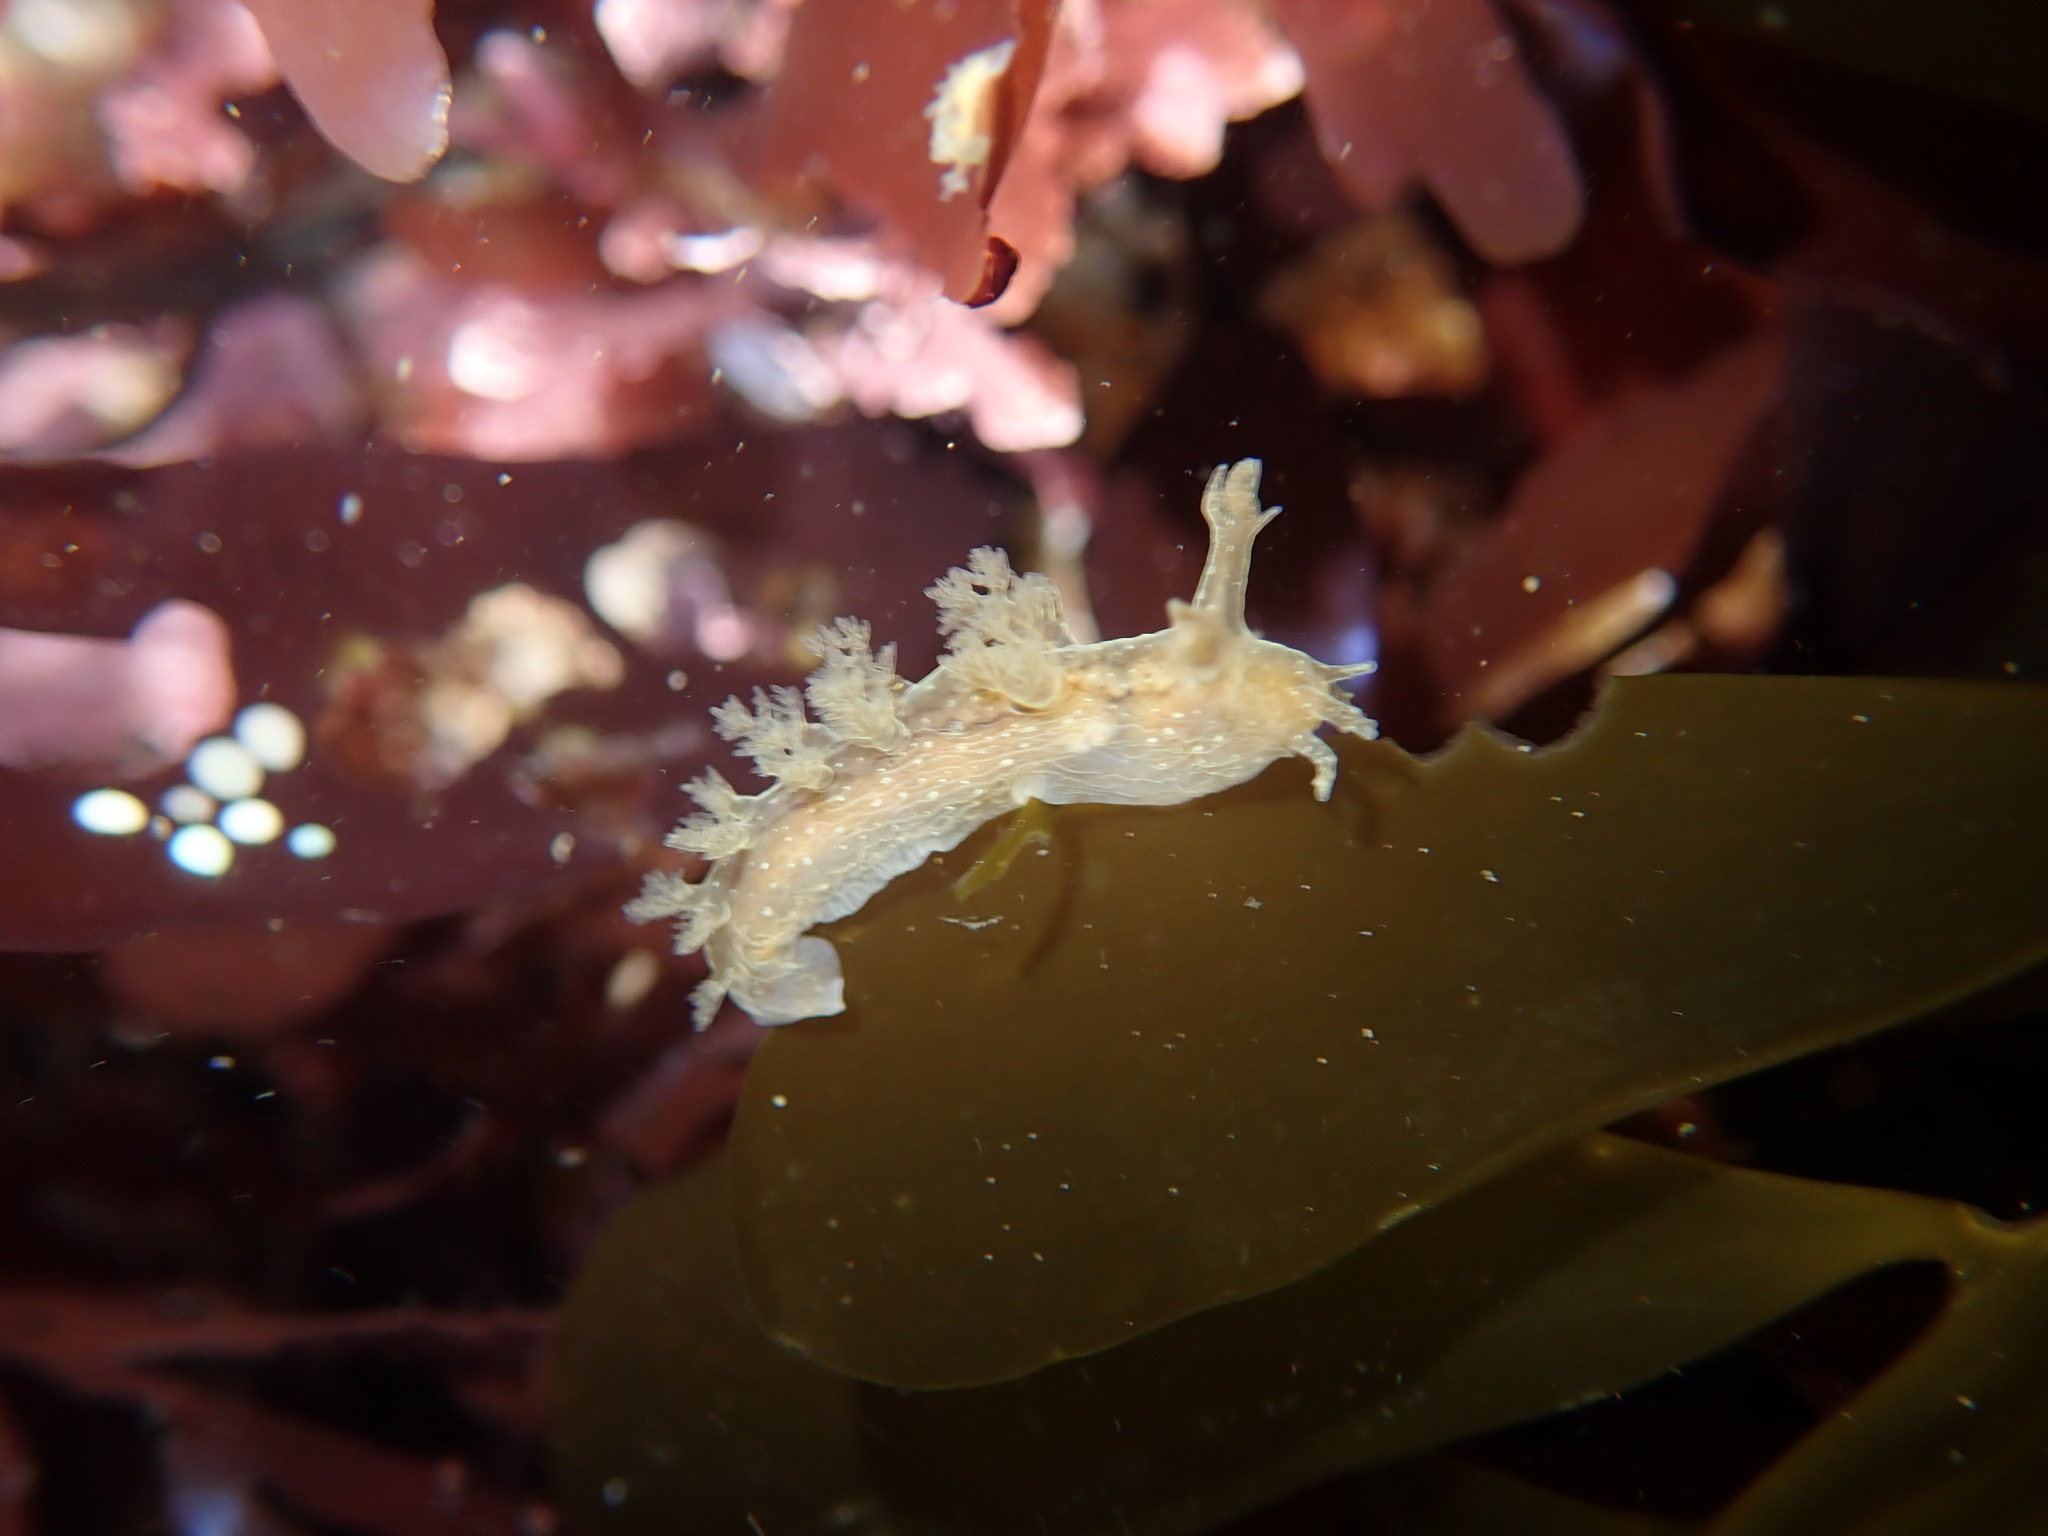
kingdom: Animalia
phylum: Mollusca
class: Gastropoda
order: Nudibranchia
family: Dendronotidae
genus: Dendronotus
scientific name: Dendronotus subramosus
